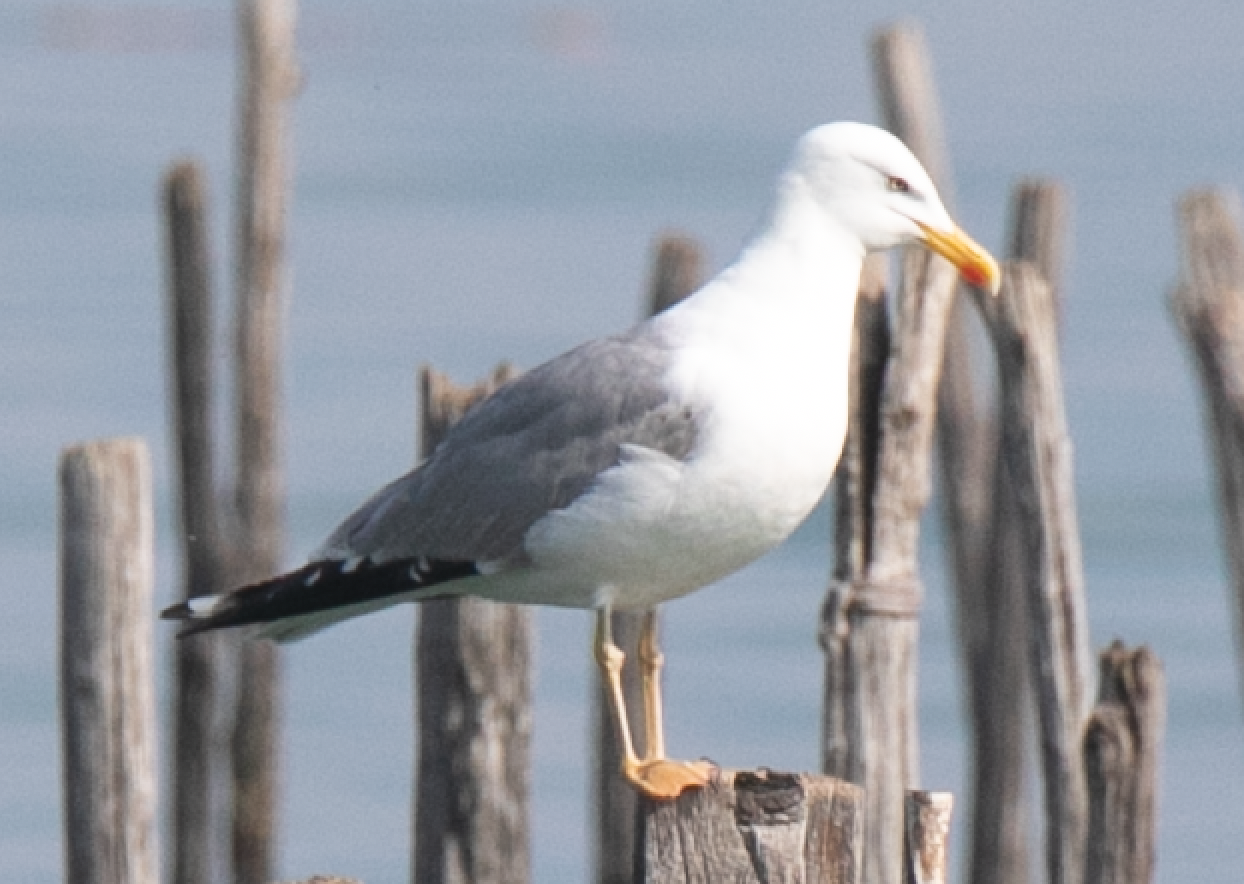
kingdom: Animalia
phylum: Chordata
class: Aves
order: Charadriiformes
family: Laridae
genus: Larus
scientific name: Larus michahellis
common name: Yellow-legged gull
